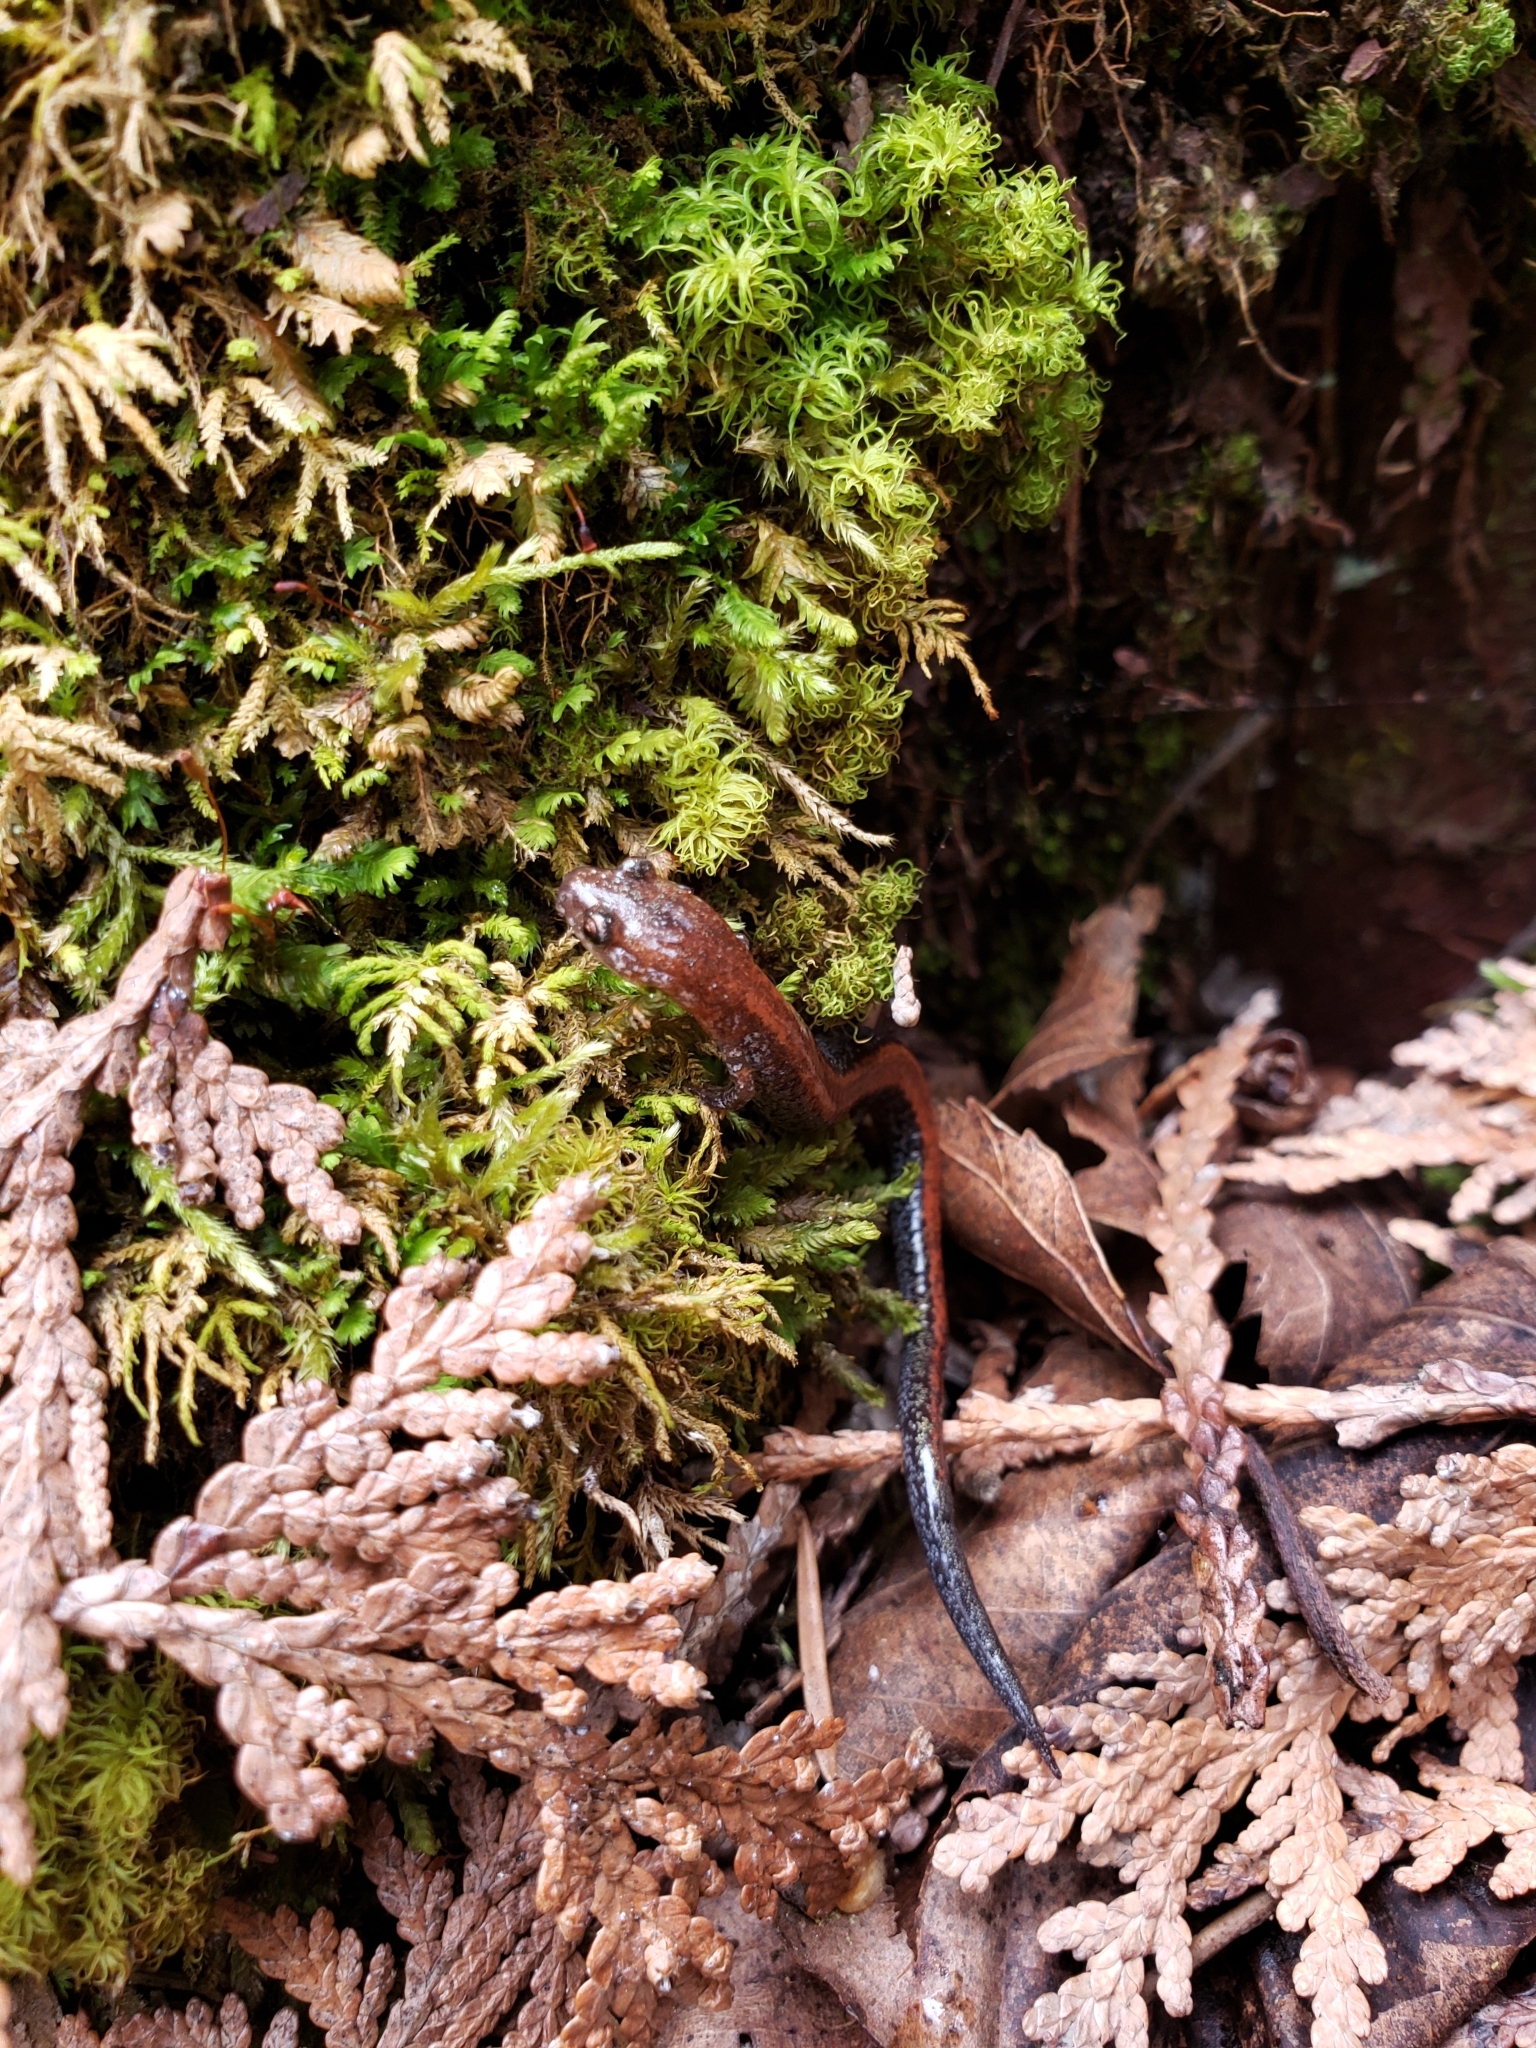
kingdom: Animalia
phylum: Chordata
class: Amphibia
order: Caudata
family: Plethodontidae
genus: Plethodon
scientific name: Plethodon cinereus
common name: Redback salamander
